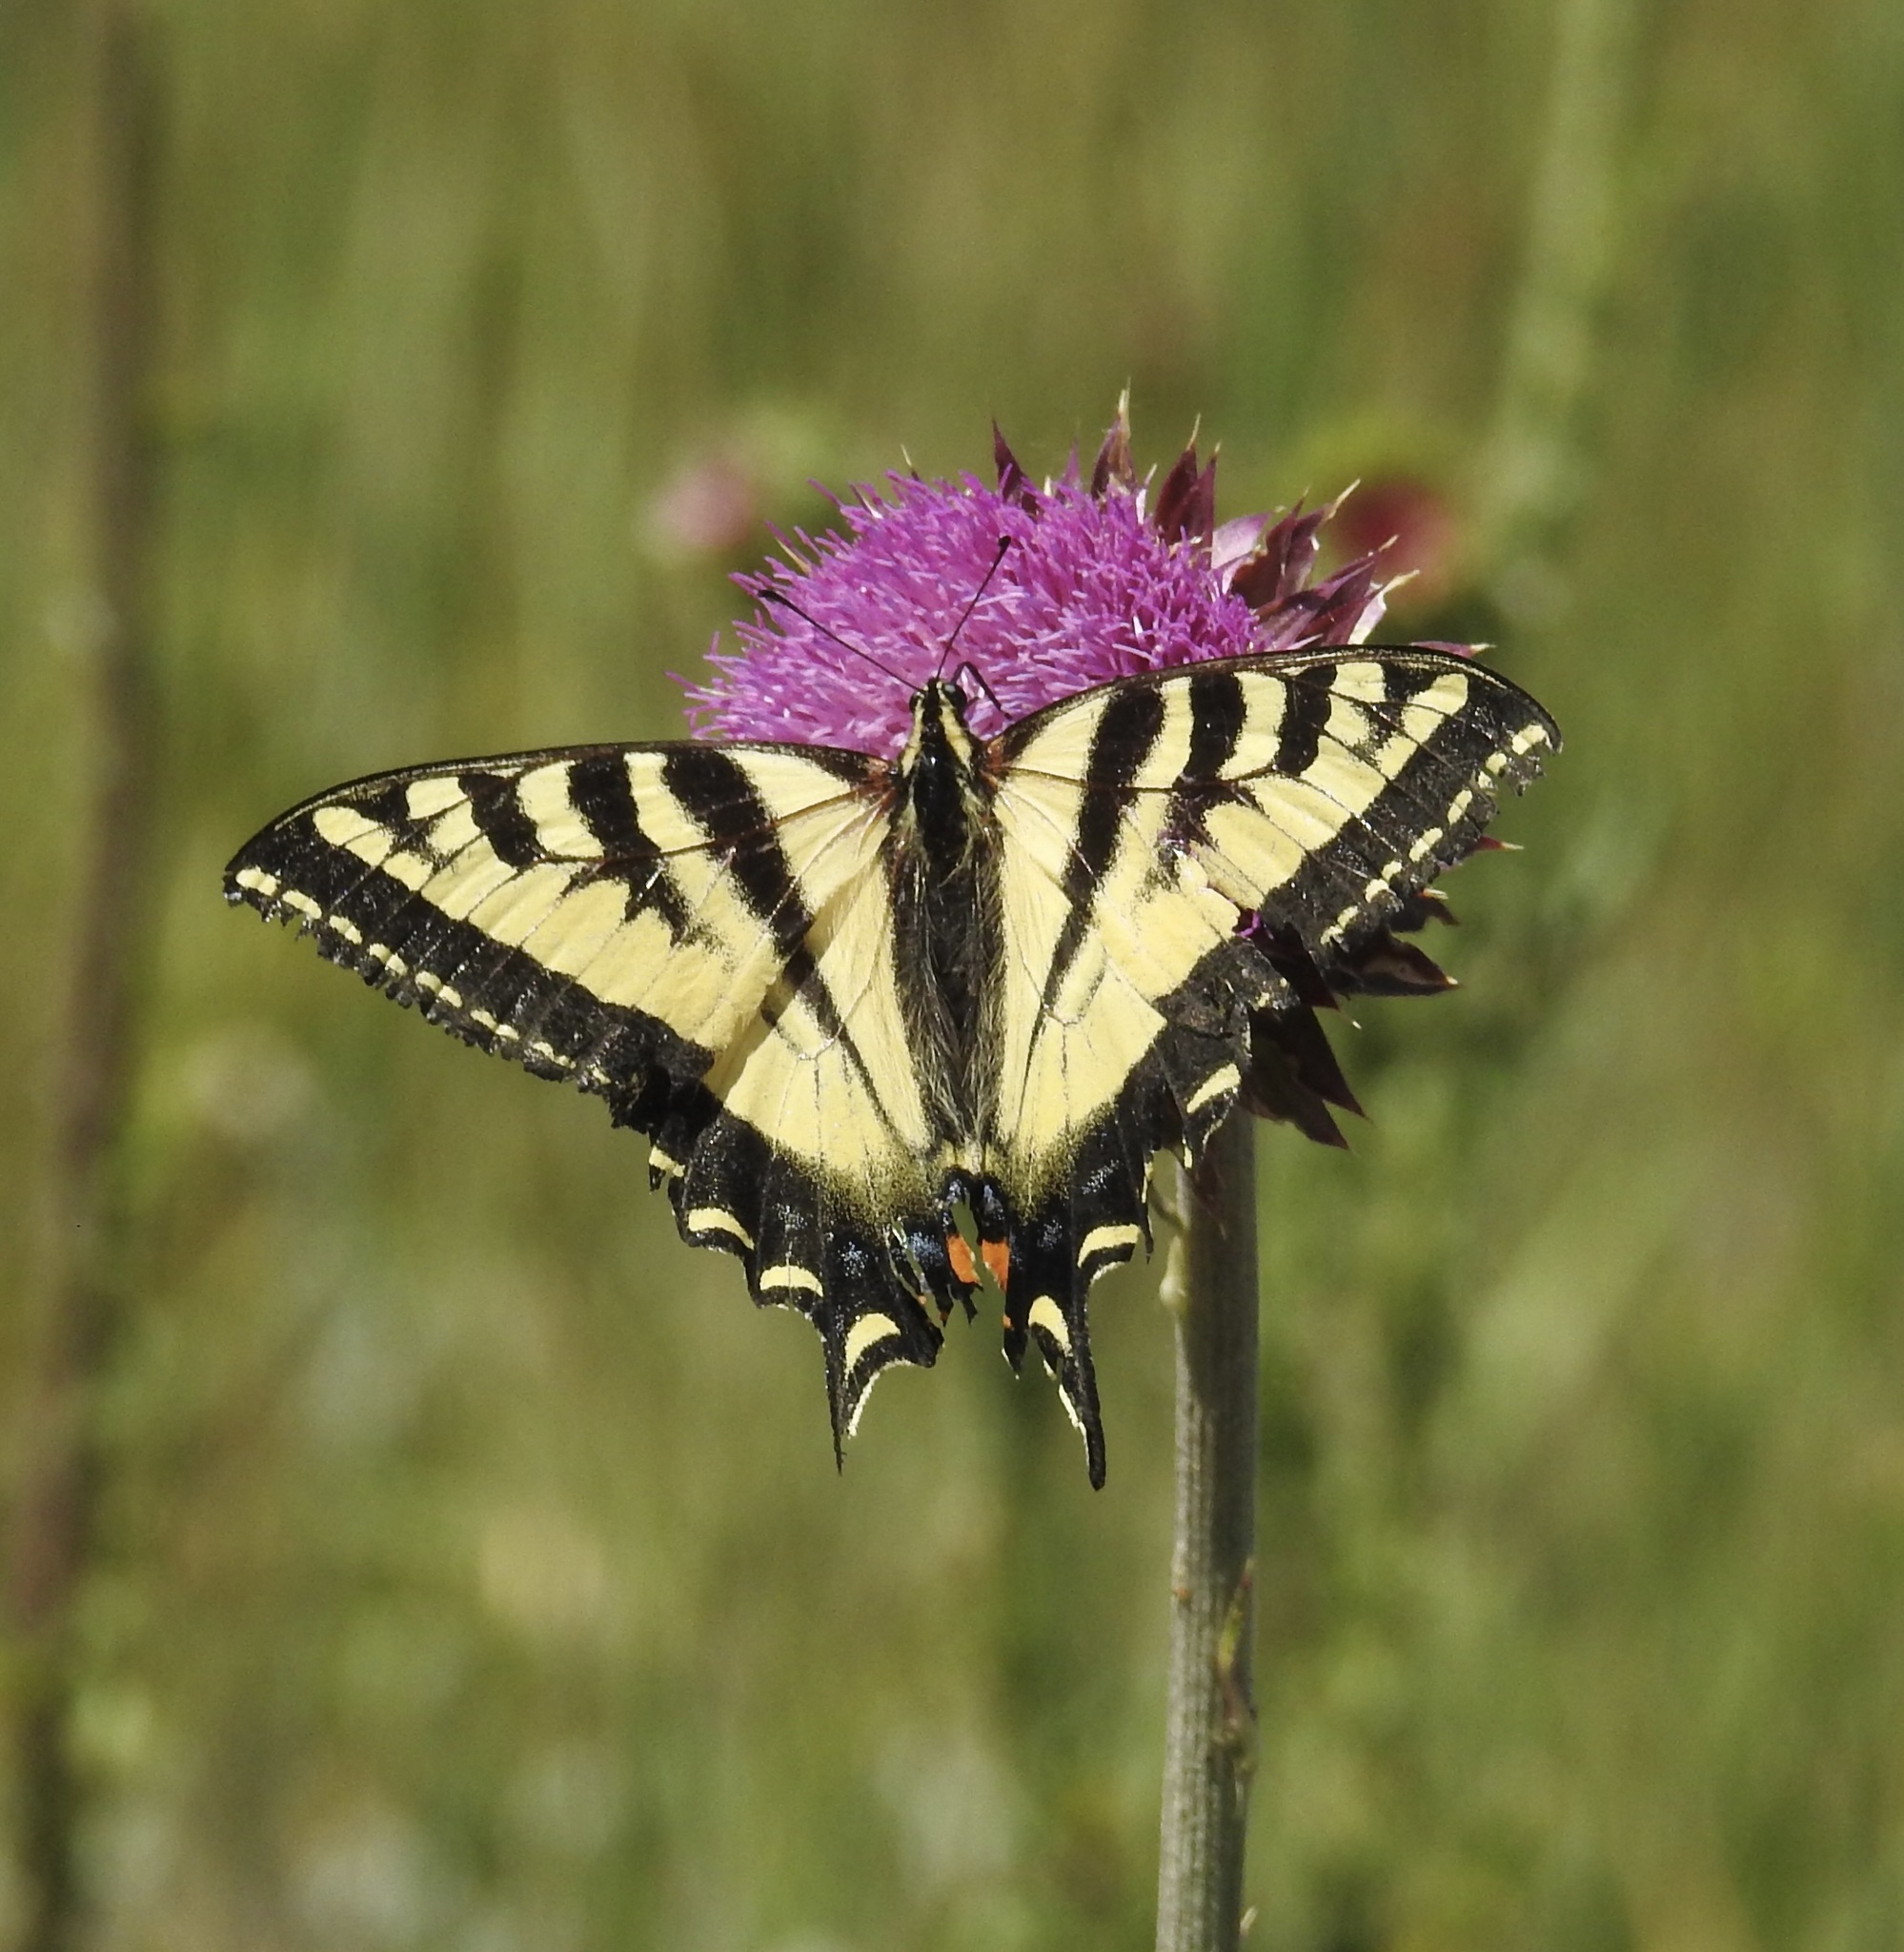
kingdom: Animalia
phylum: Arthropoda
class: Insecta
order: Lepidoptera
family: Papilionidae
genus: Papilio
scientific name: Papilio rutulus
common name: Western tiger swallowtail
